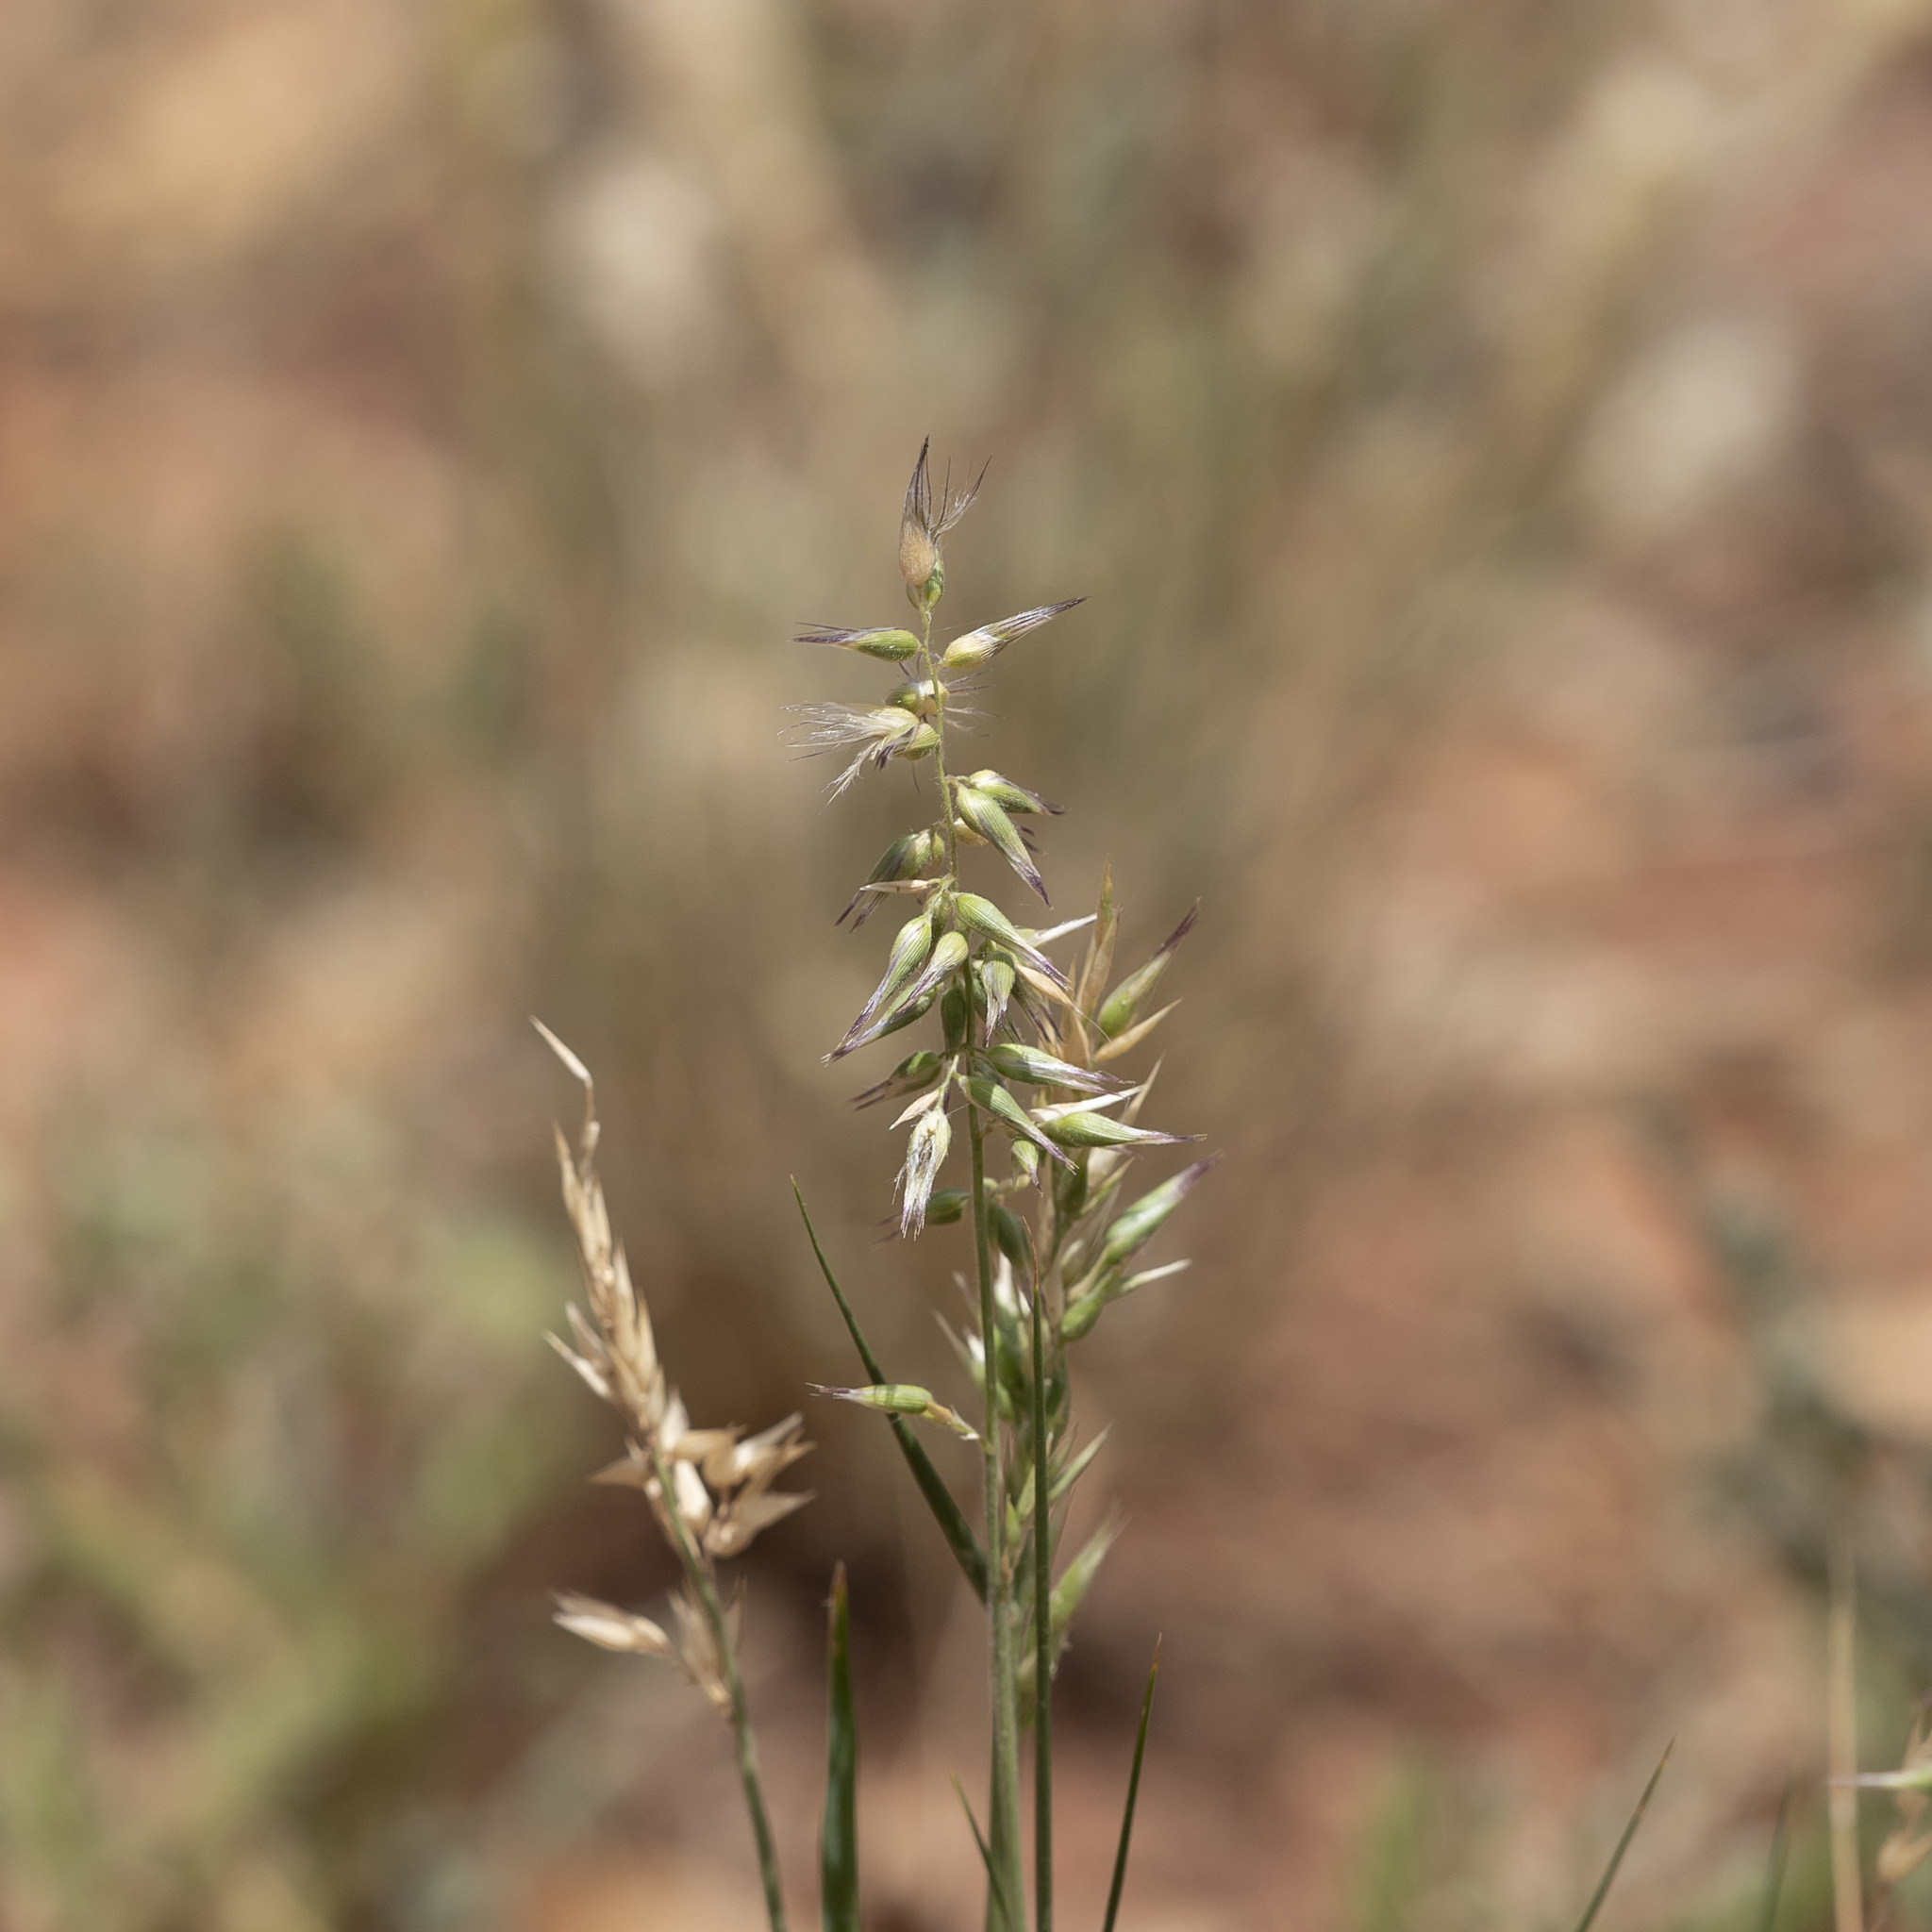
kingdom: Plantae
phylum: Tracheophyta
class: Liliopsida
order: Poales
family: Poaceae
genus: Enneapogon
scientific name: Enneapogon avenaceus
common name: Hairy oat grass
